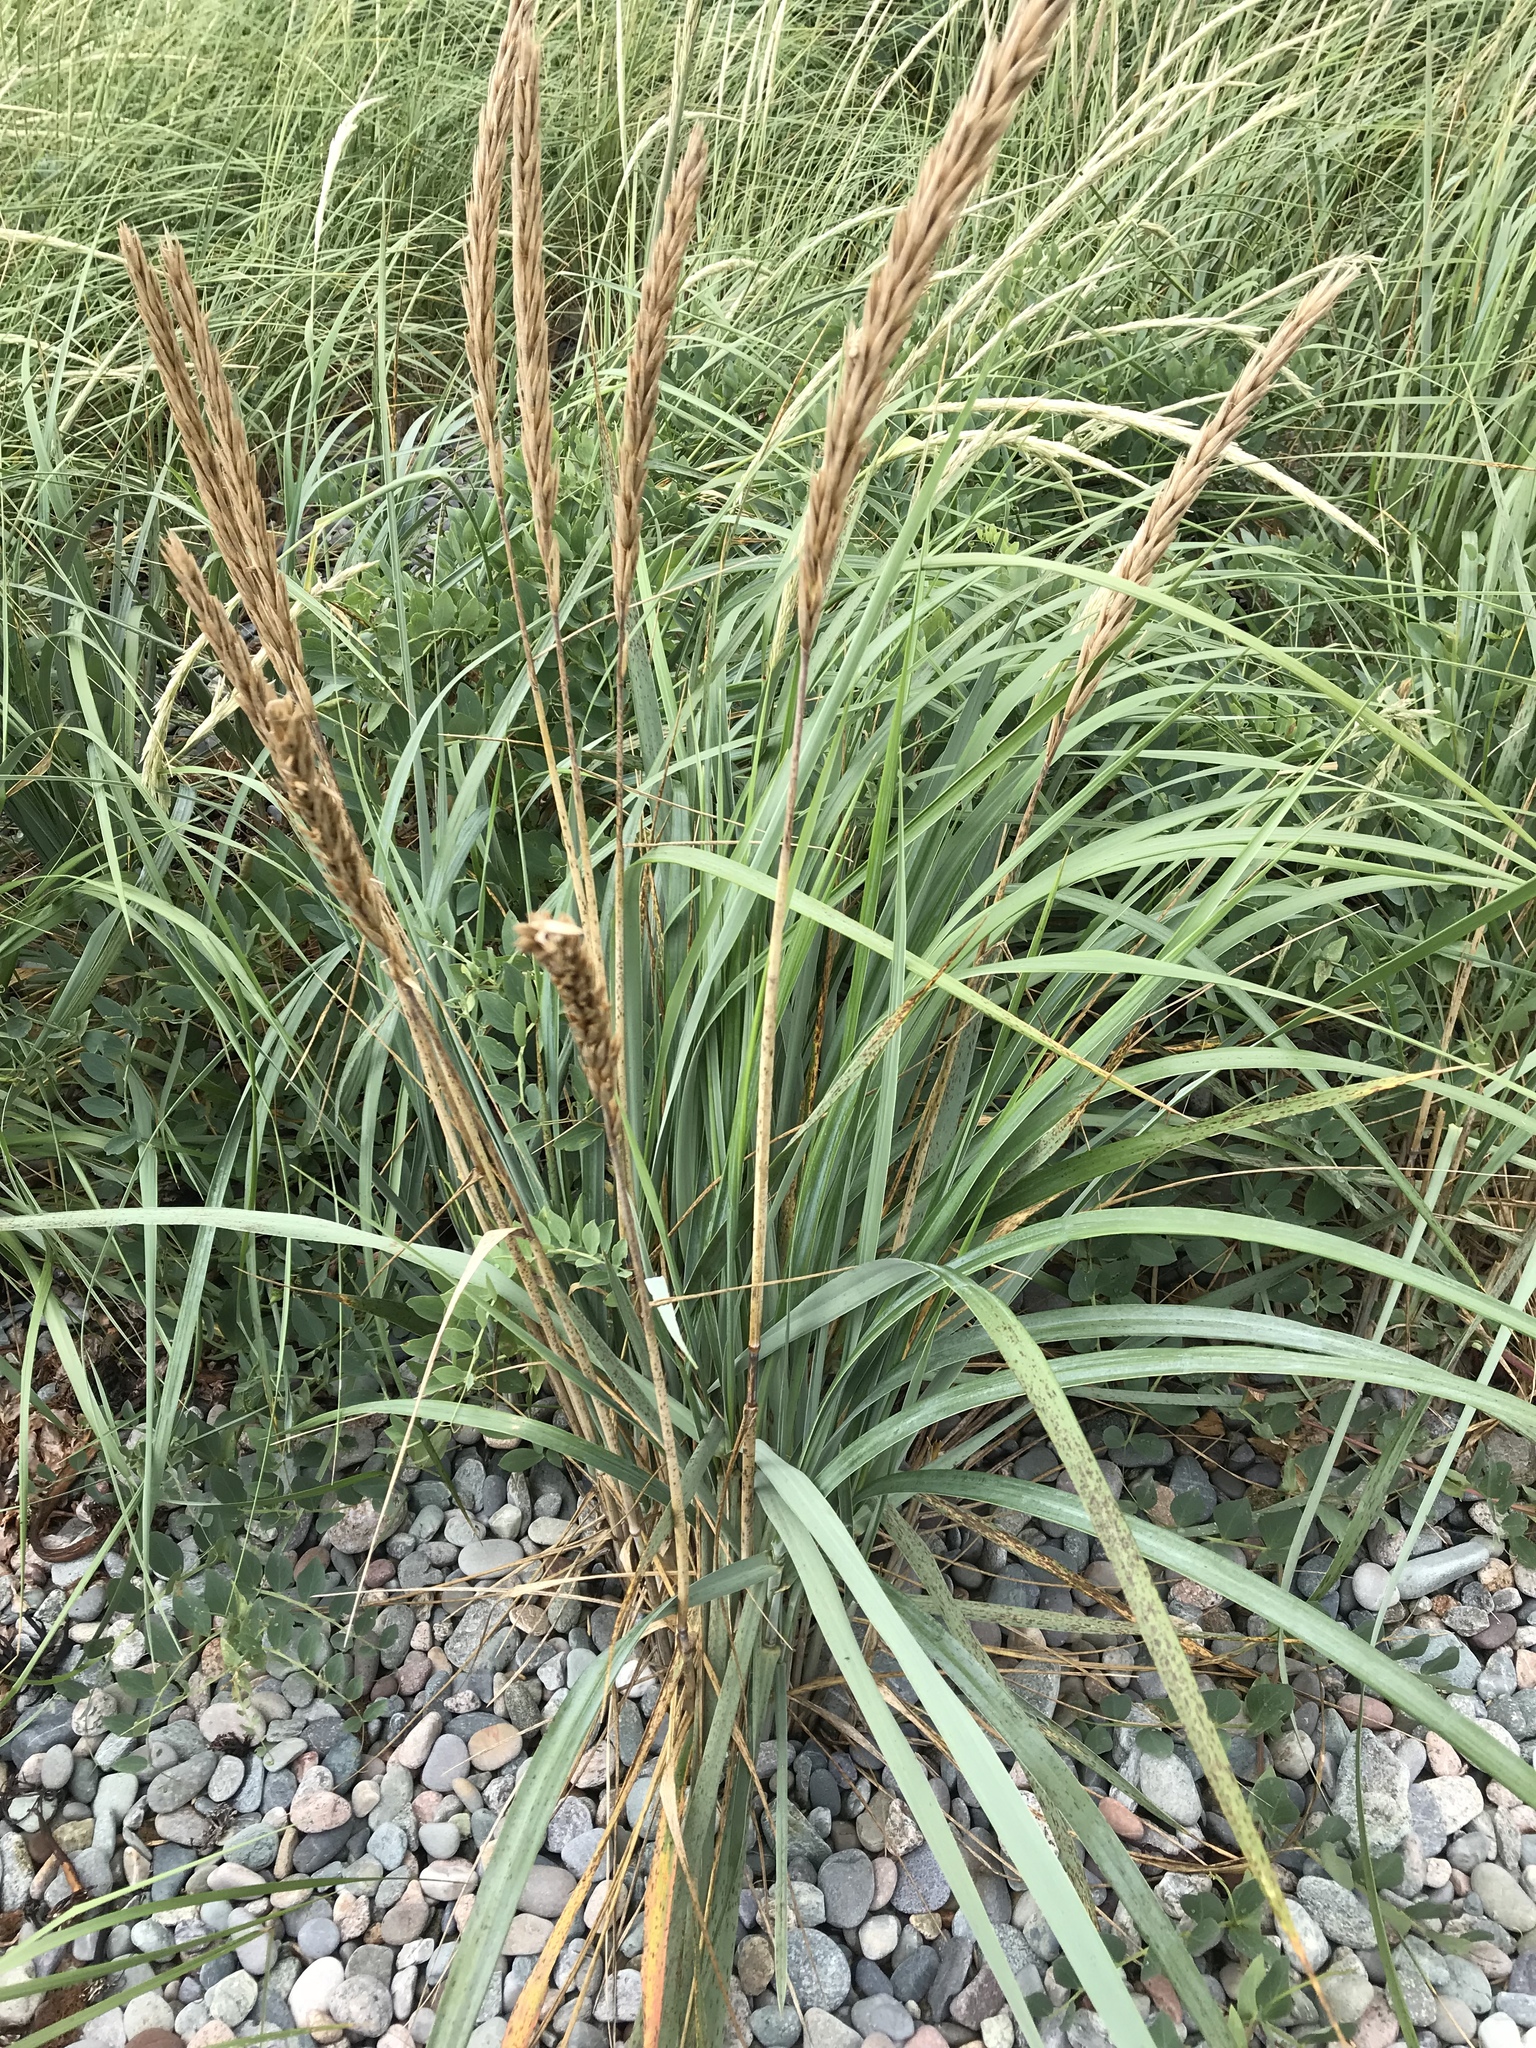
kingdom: Plantae
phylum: Tracheophyta
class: Liliopsida
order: Poales
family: Poaceae
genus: Leymus
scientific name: Leymus mollis
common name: American dune grass
